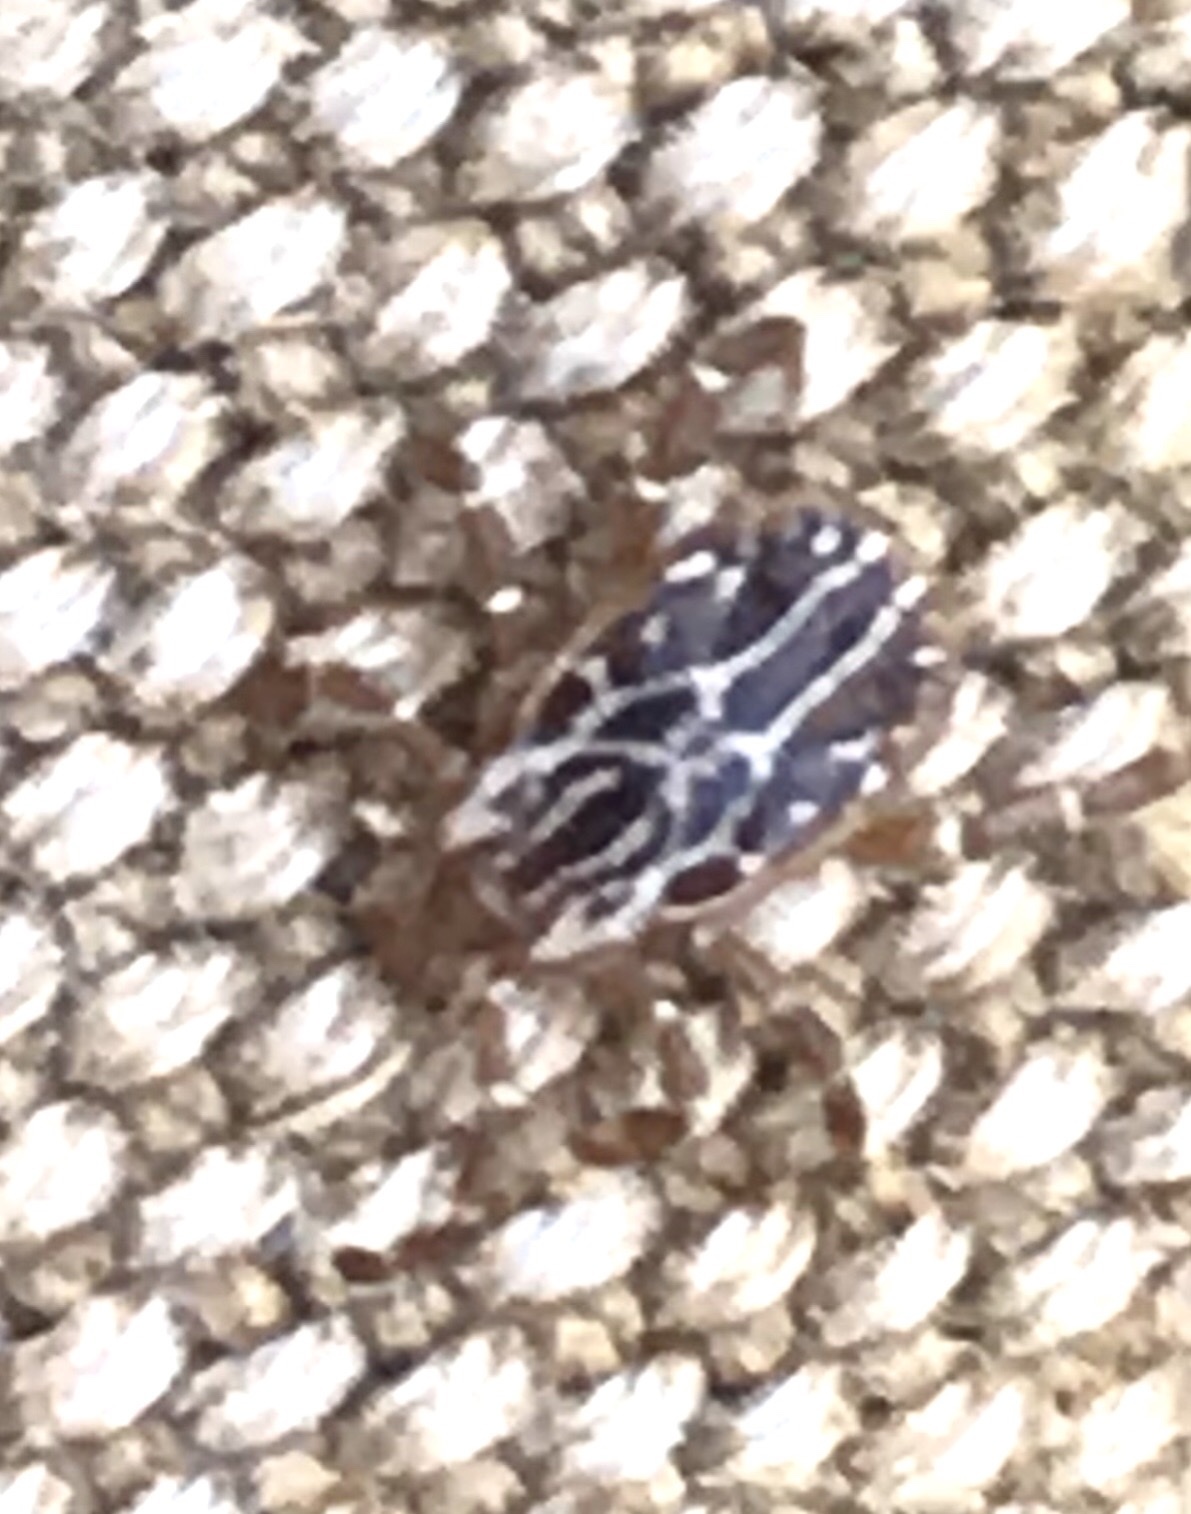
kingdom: Animalia
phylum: Arthropoda
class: Arachnida
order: Ixodida
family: Ixodidae
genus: Amblyomma
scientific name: Amblyomma maculatum
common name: Gulf coast tick
